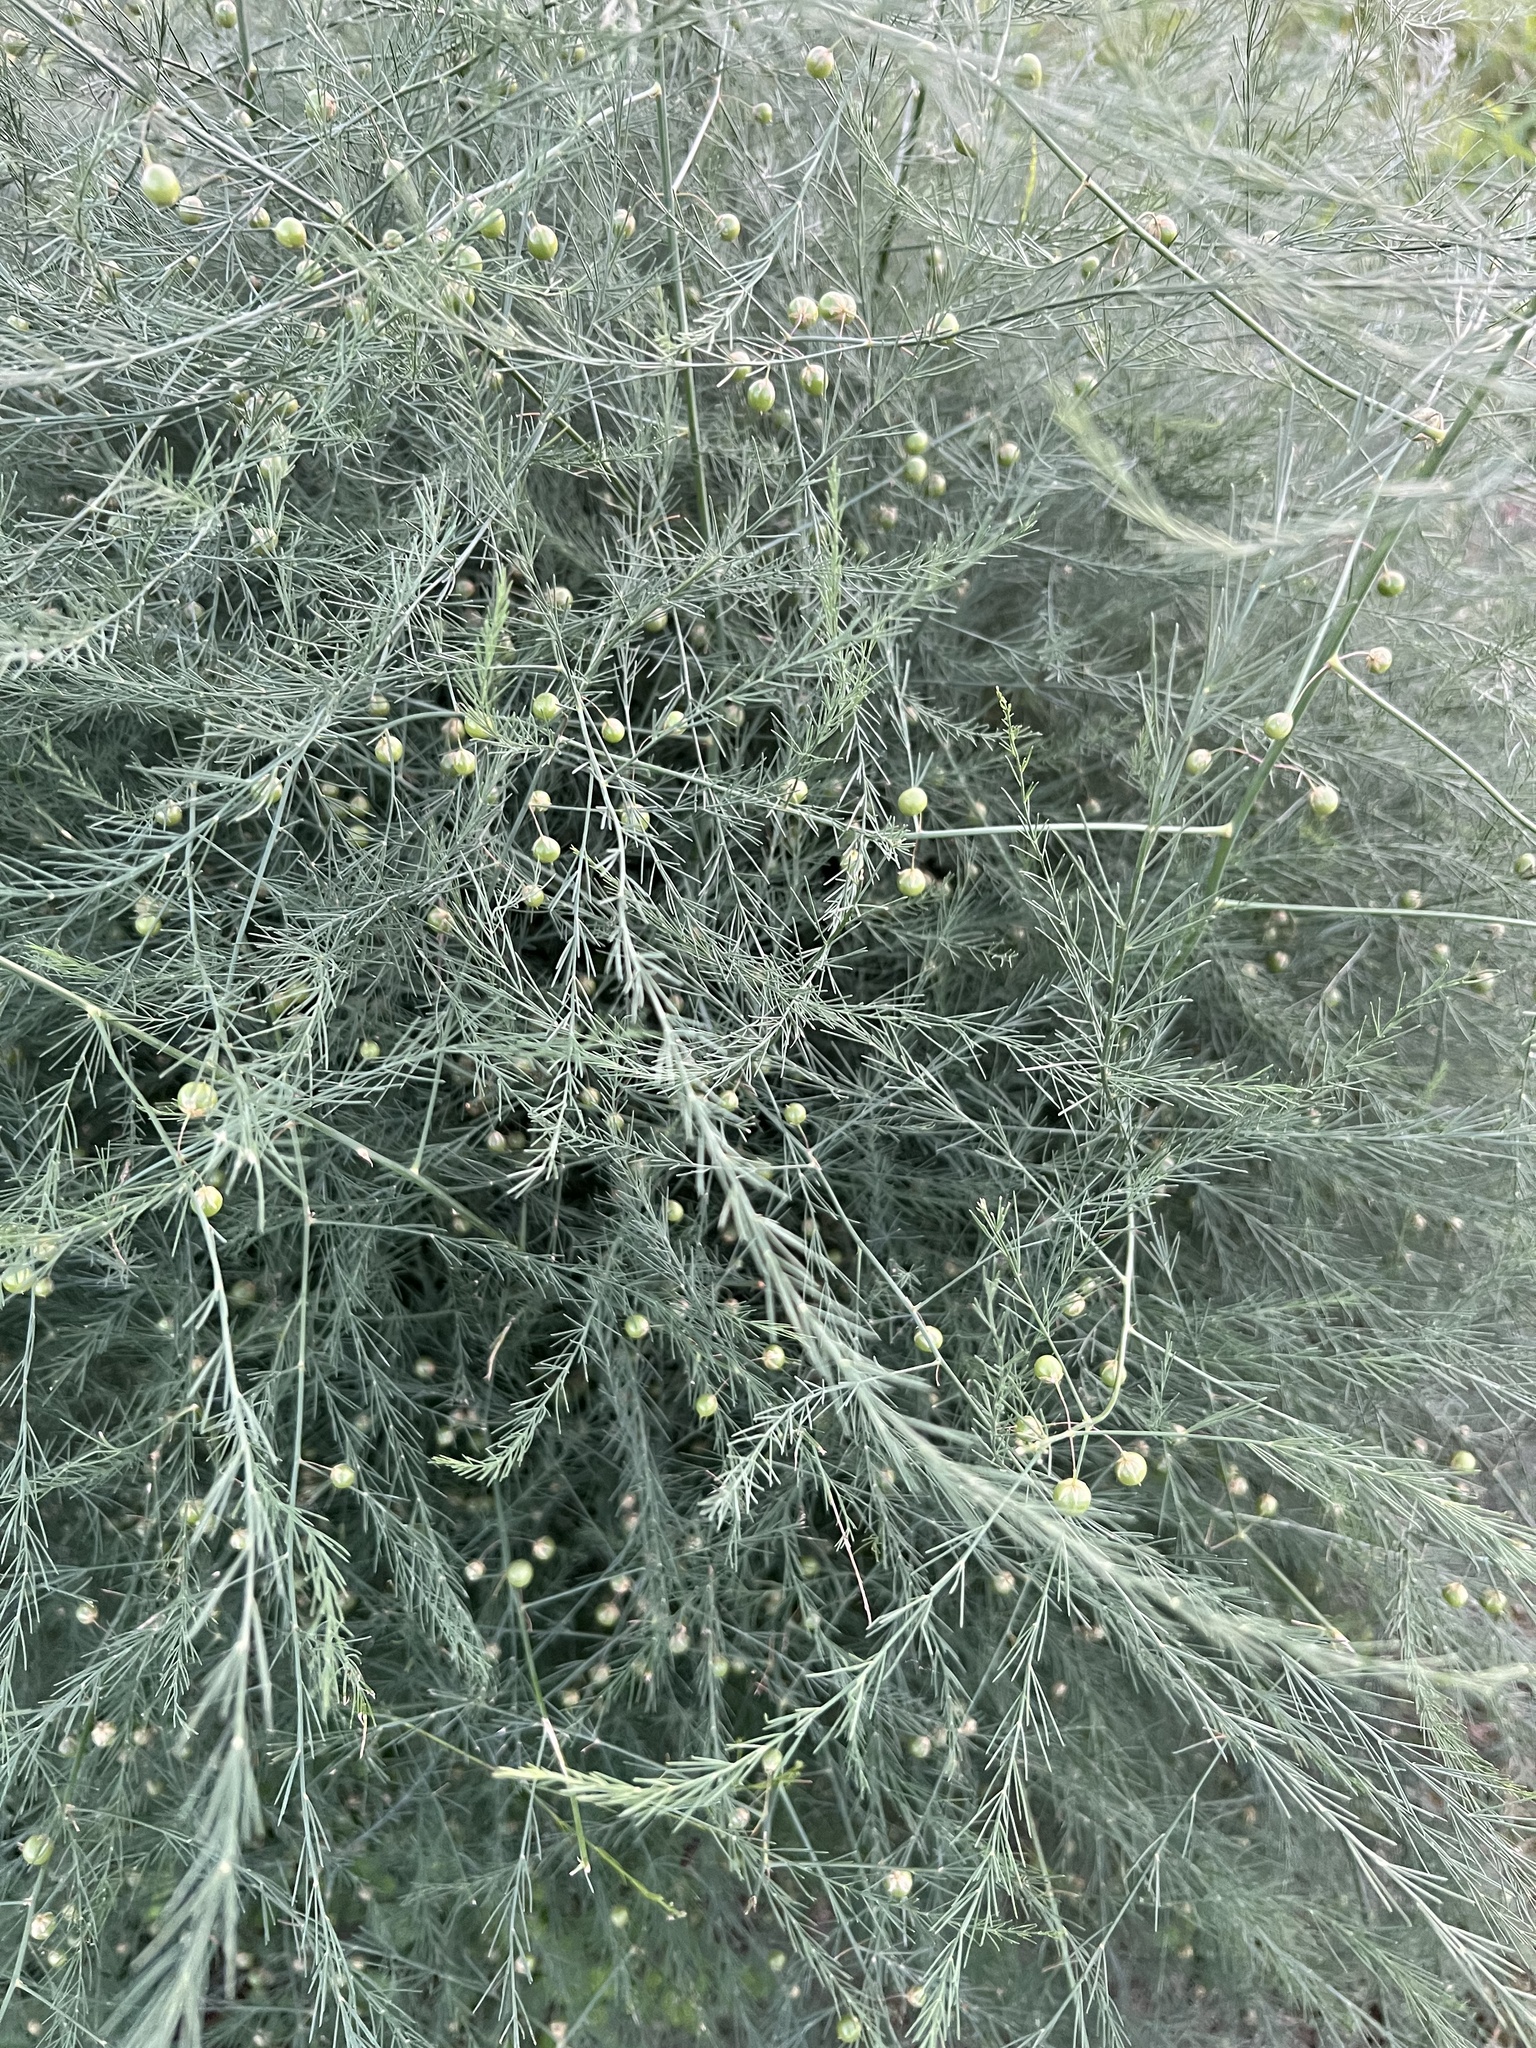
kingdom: Plantae
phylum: Tracheophyta
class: Liliopsida
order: Asparagales
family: Asparagaceae
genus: Asparagus
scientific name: Asparagus officinalis
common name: Garden asparagus
